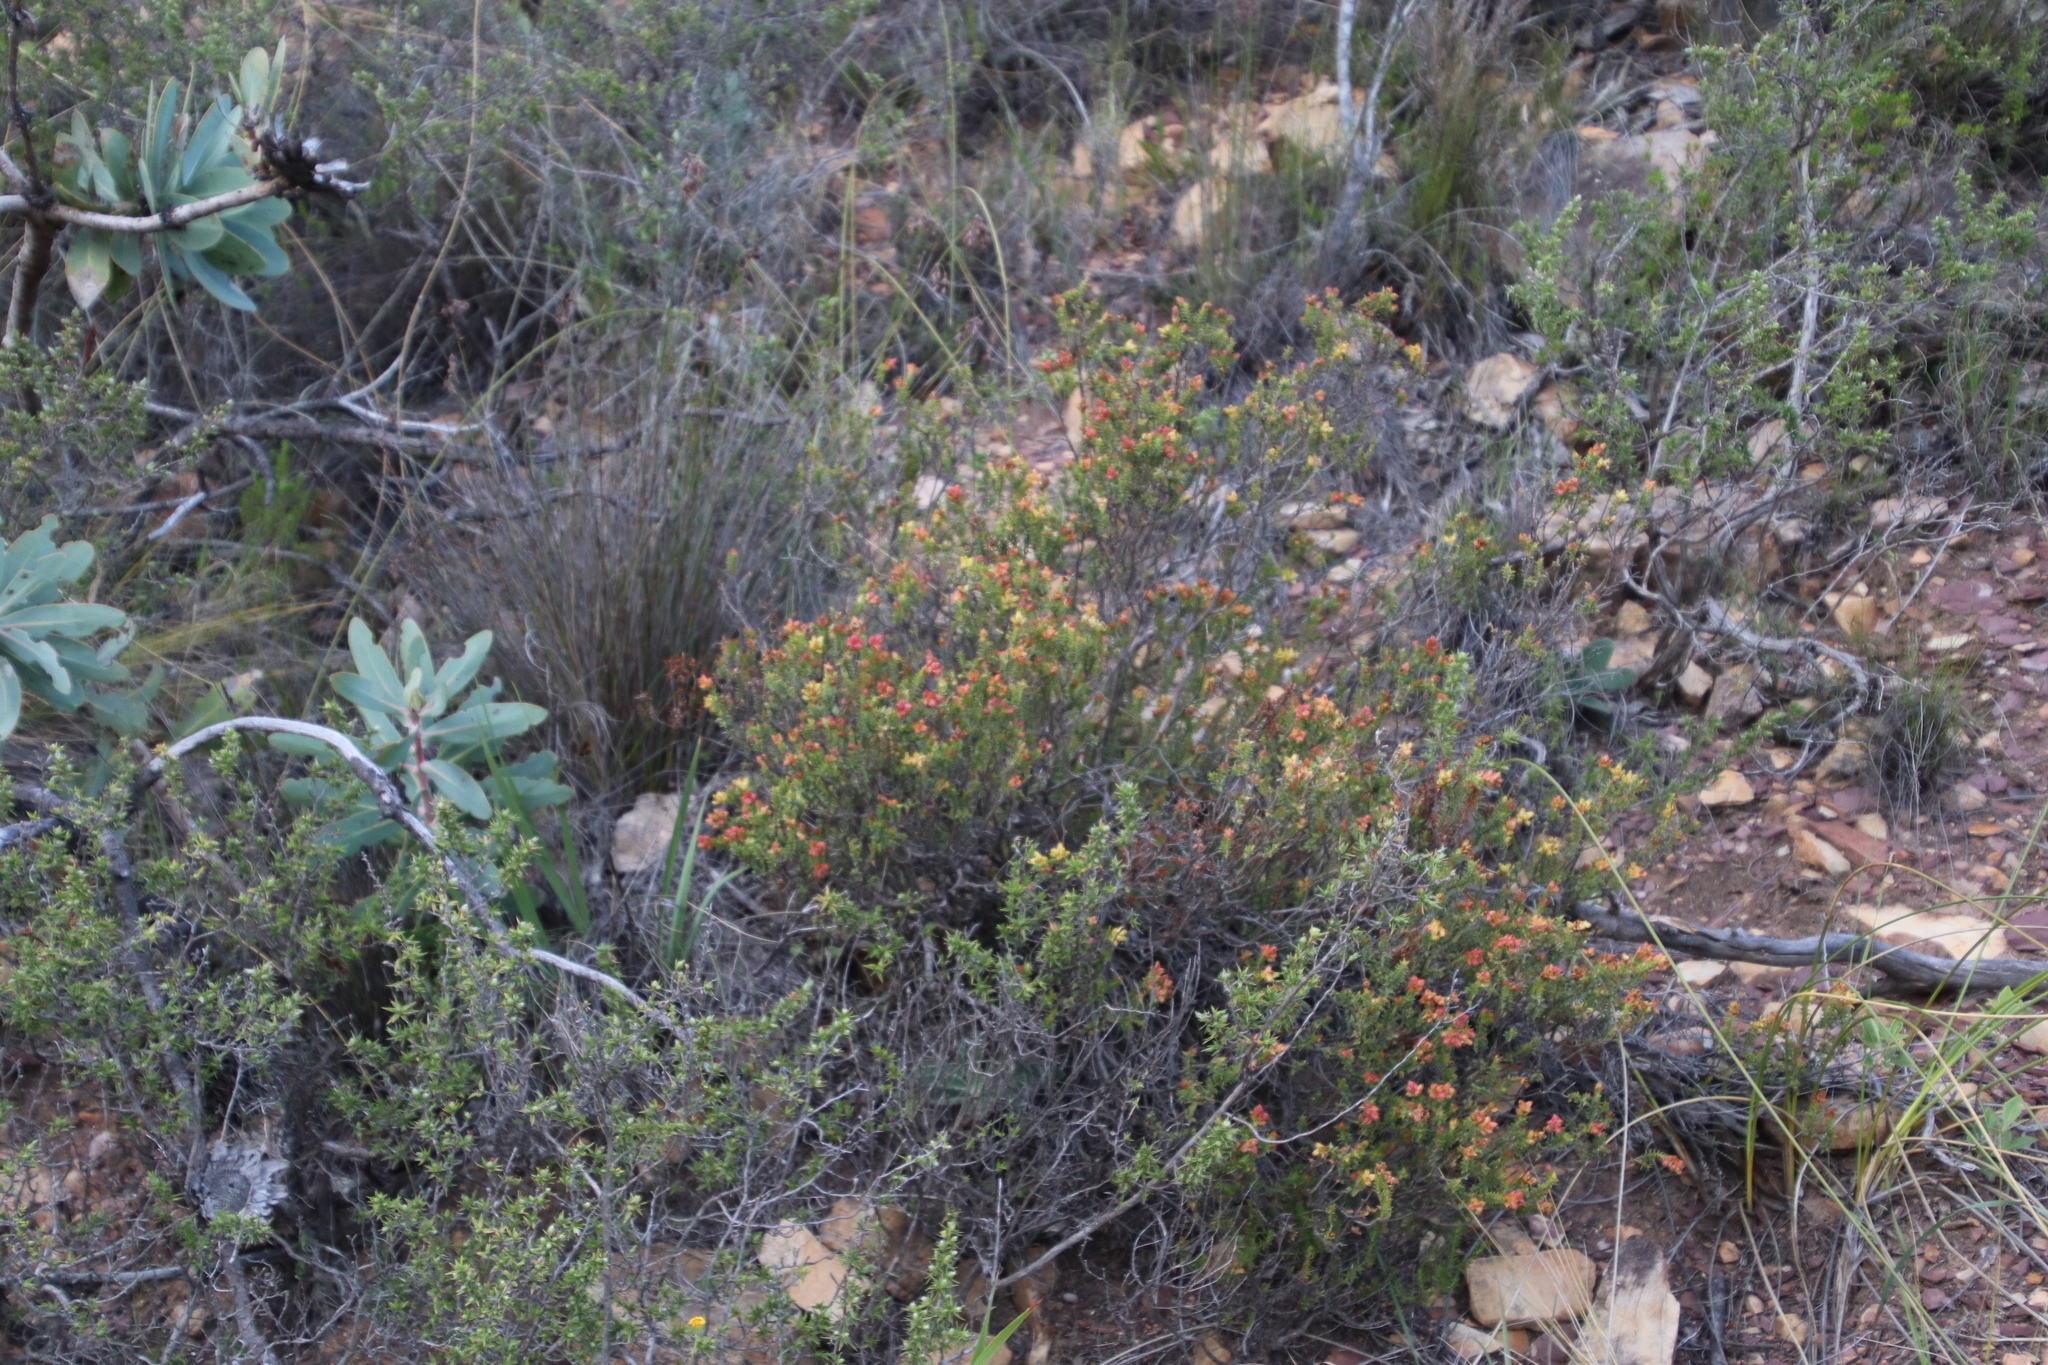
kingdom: Plantae
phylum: Tracheophyta
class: Magnoliopsida
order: Myrtales
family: Penaeaceae
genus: Penaea
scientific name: Penaea mucronata
